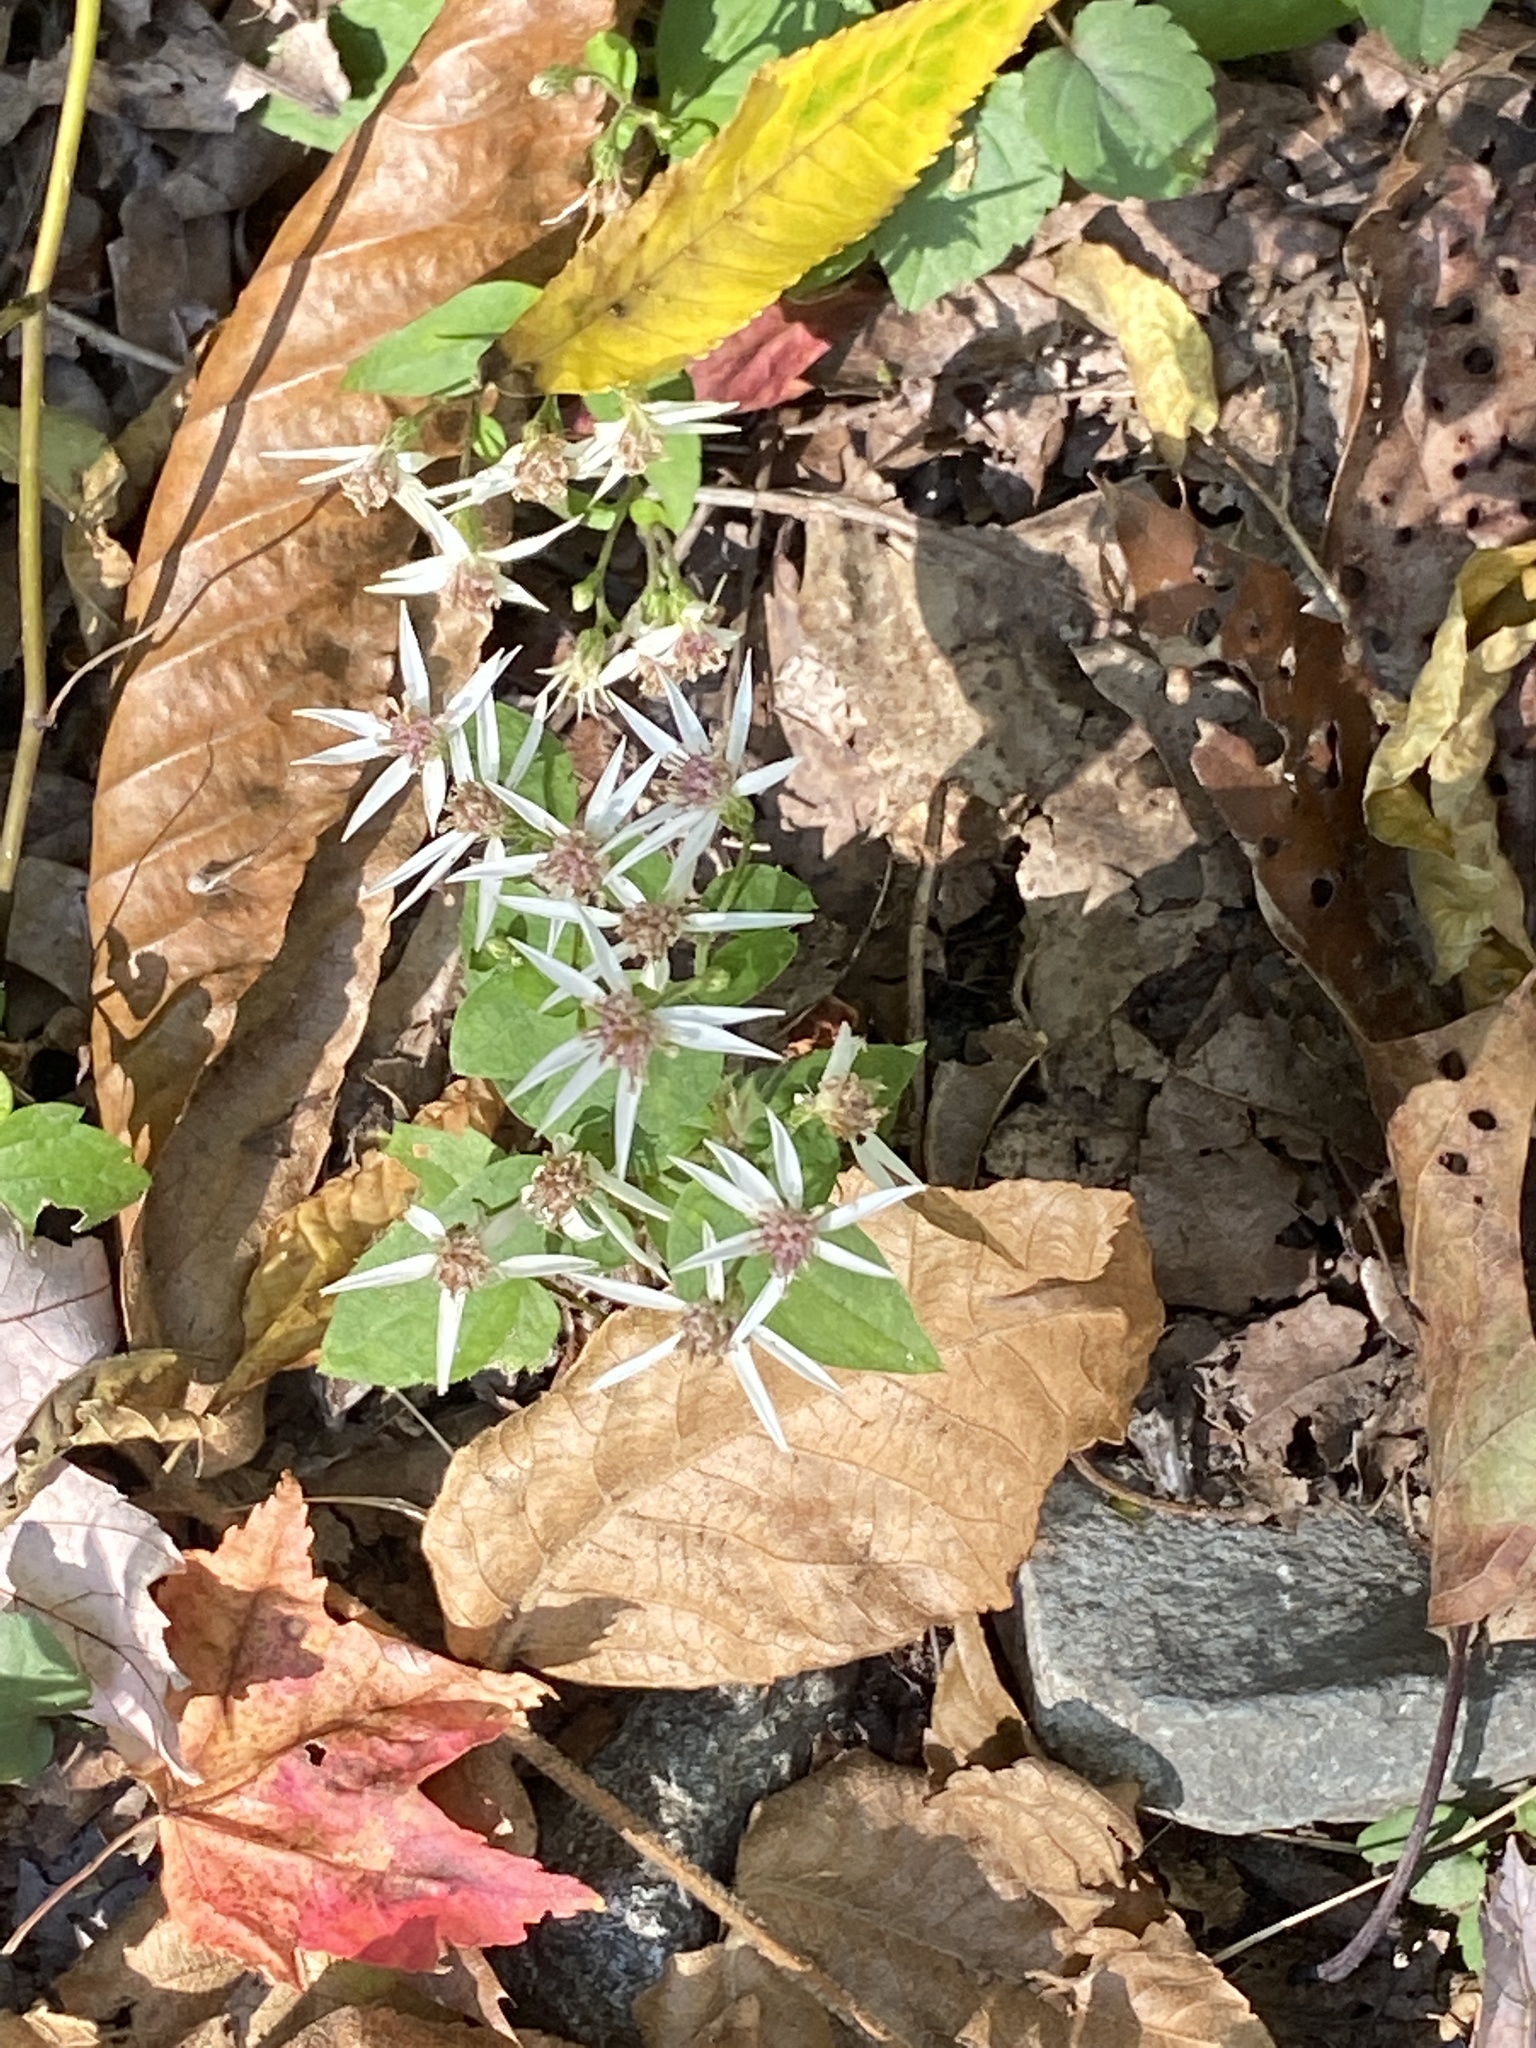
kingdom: Plantae
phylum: Tracheophyta
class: Magnoliopsida
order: Asterales
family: Asteraceae
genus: Eurybia
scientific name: Eurybia divaricata
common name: White wood aster
